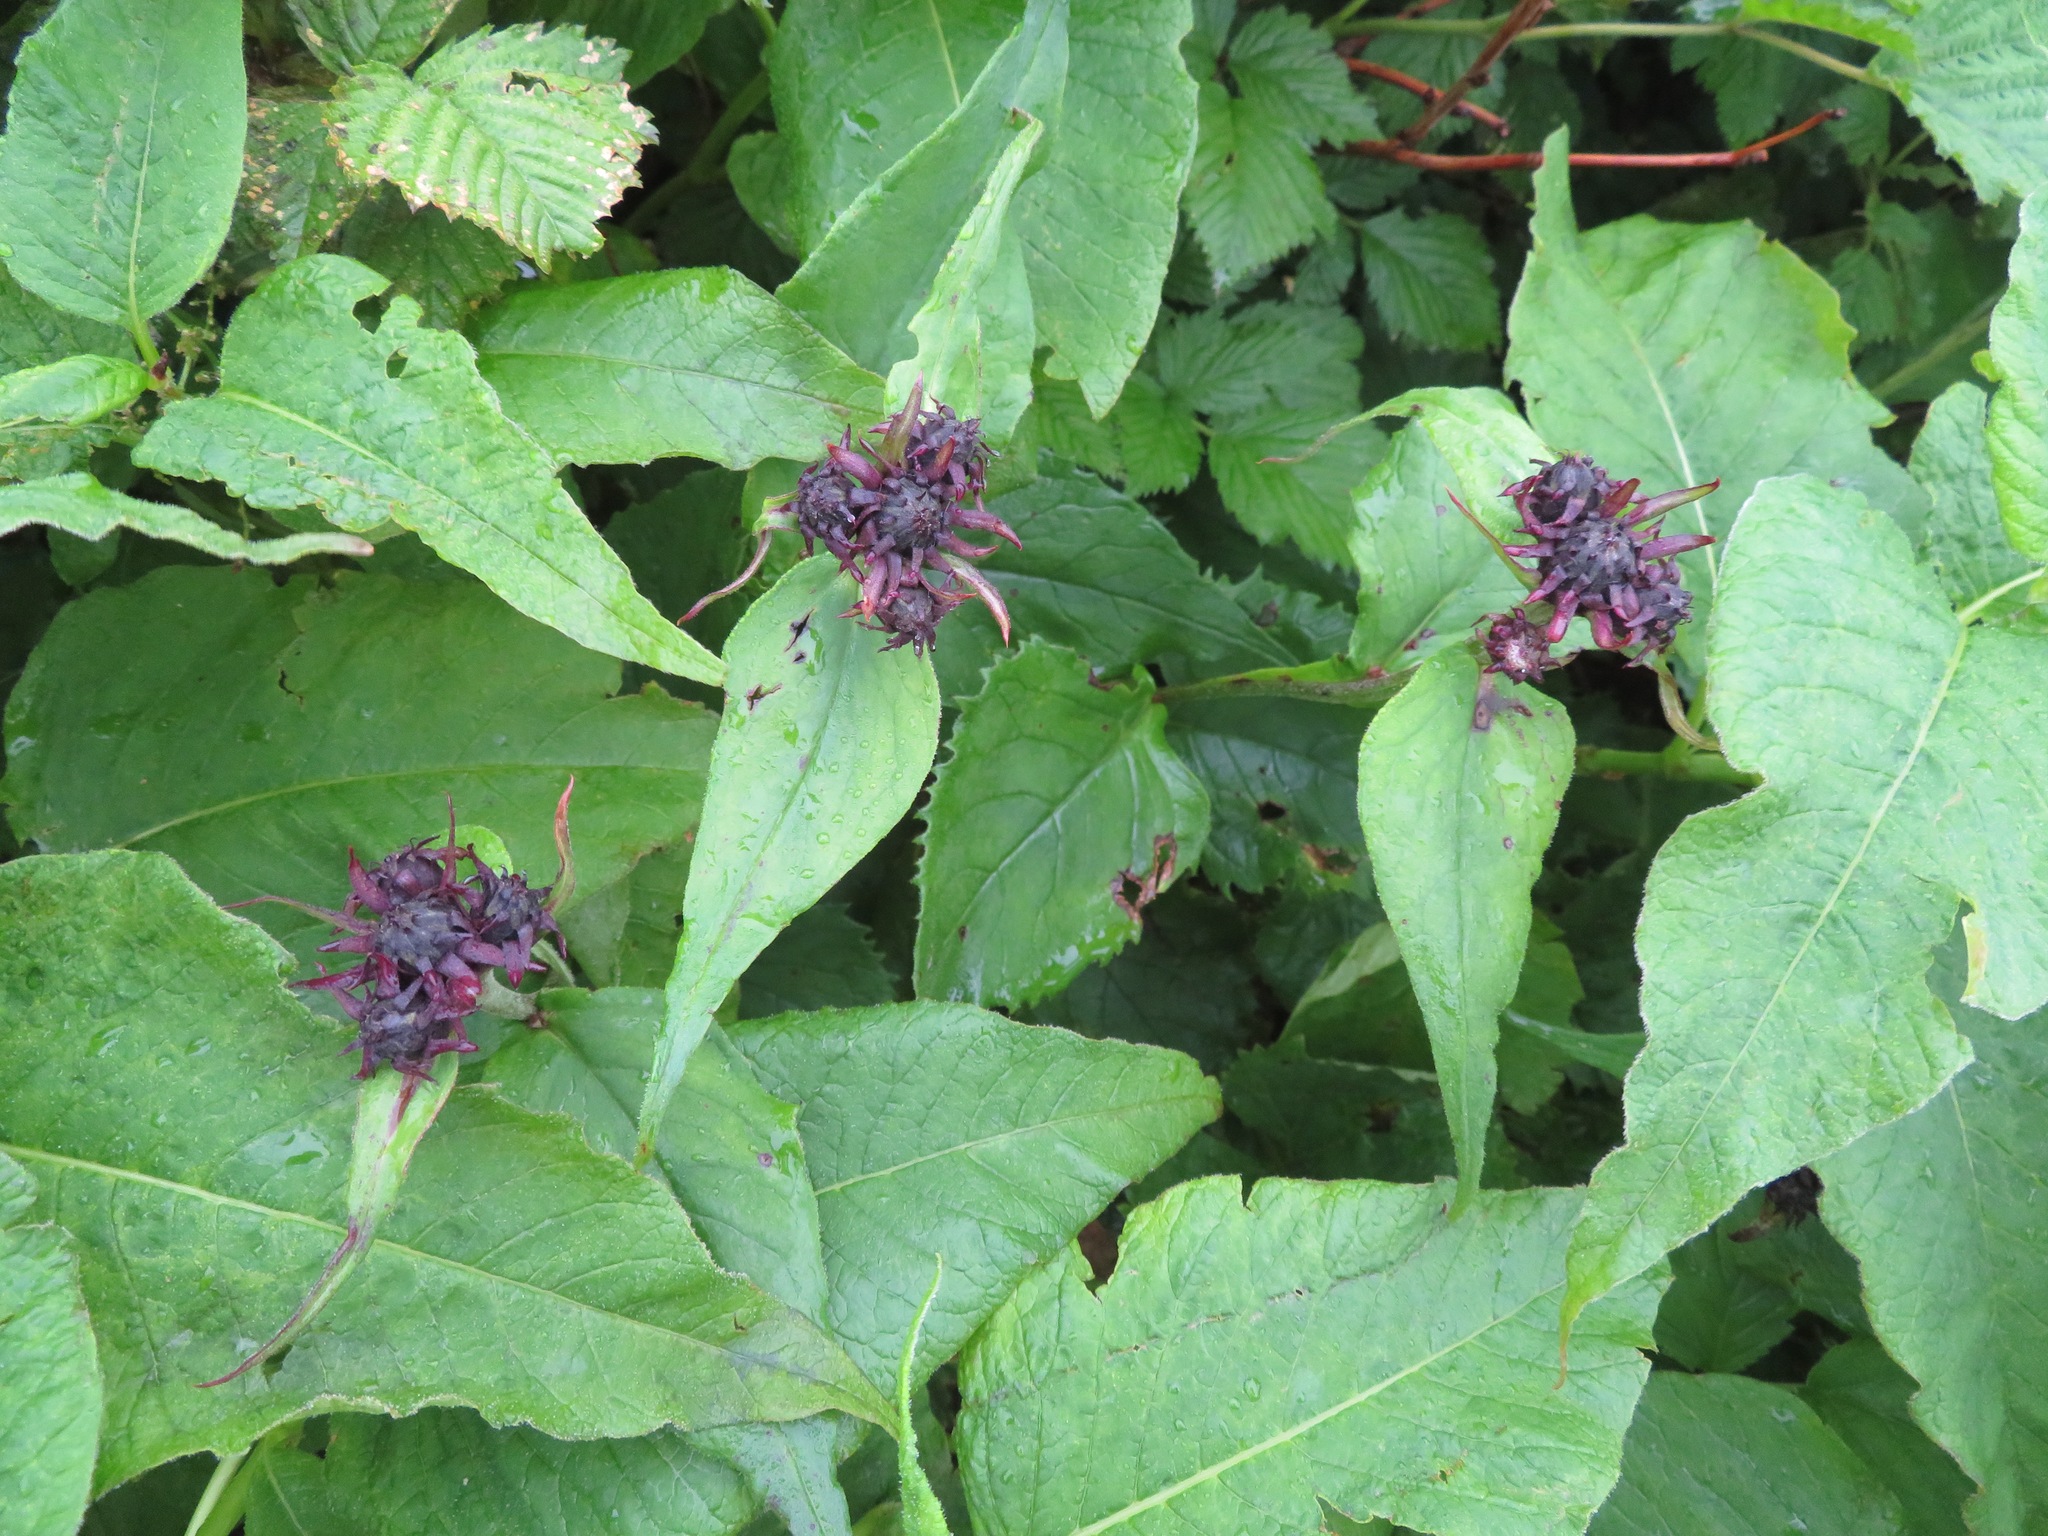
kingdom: Plantae
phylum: Tracheophyta
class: Magnoliopsida
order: Asterales
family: Asteraceae
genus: Saussurea
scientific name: Saussurea sessiliflora
